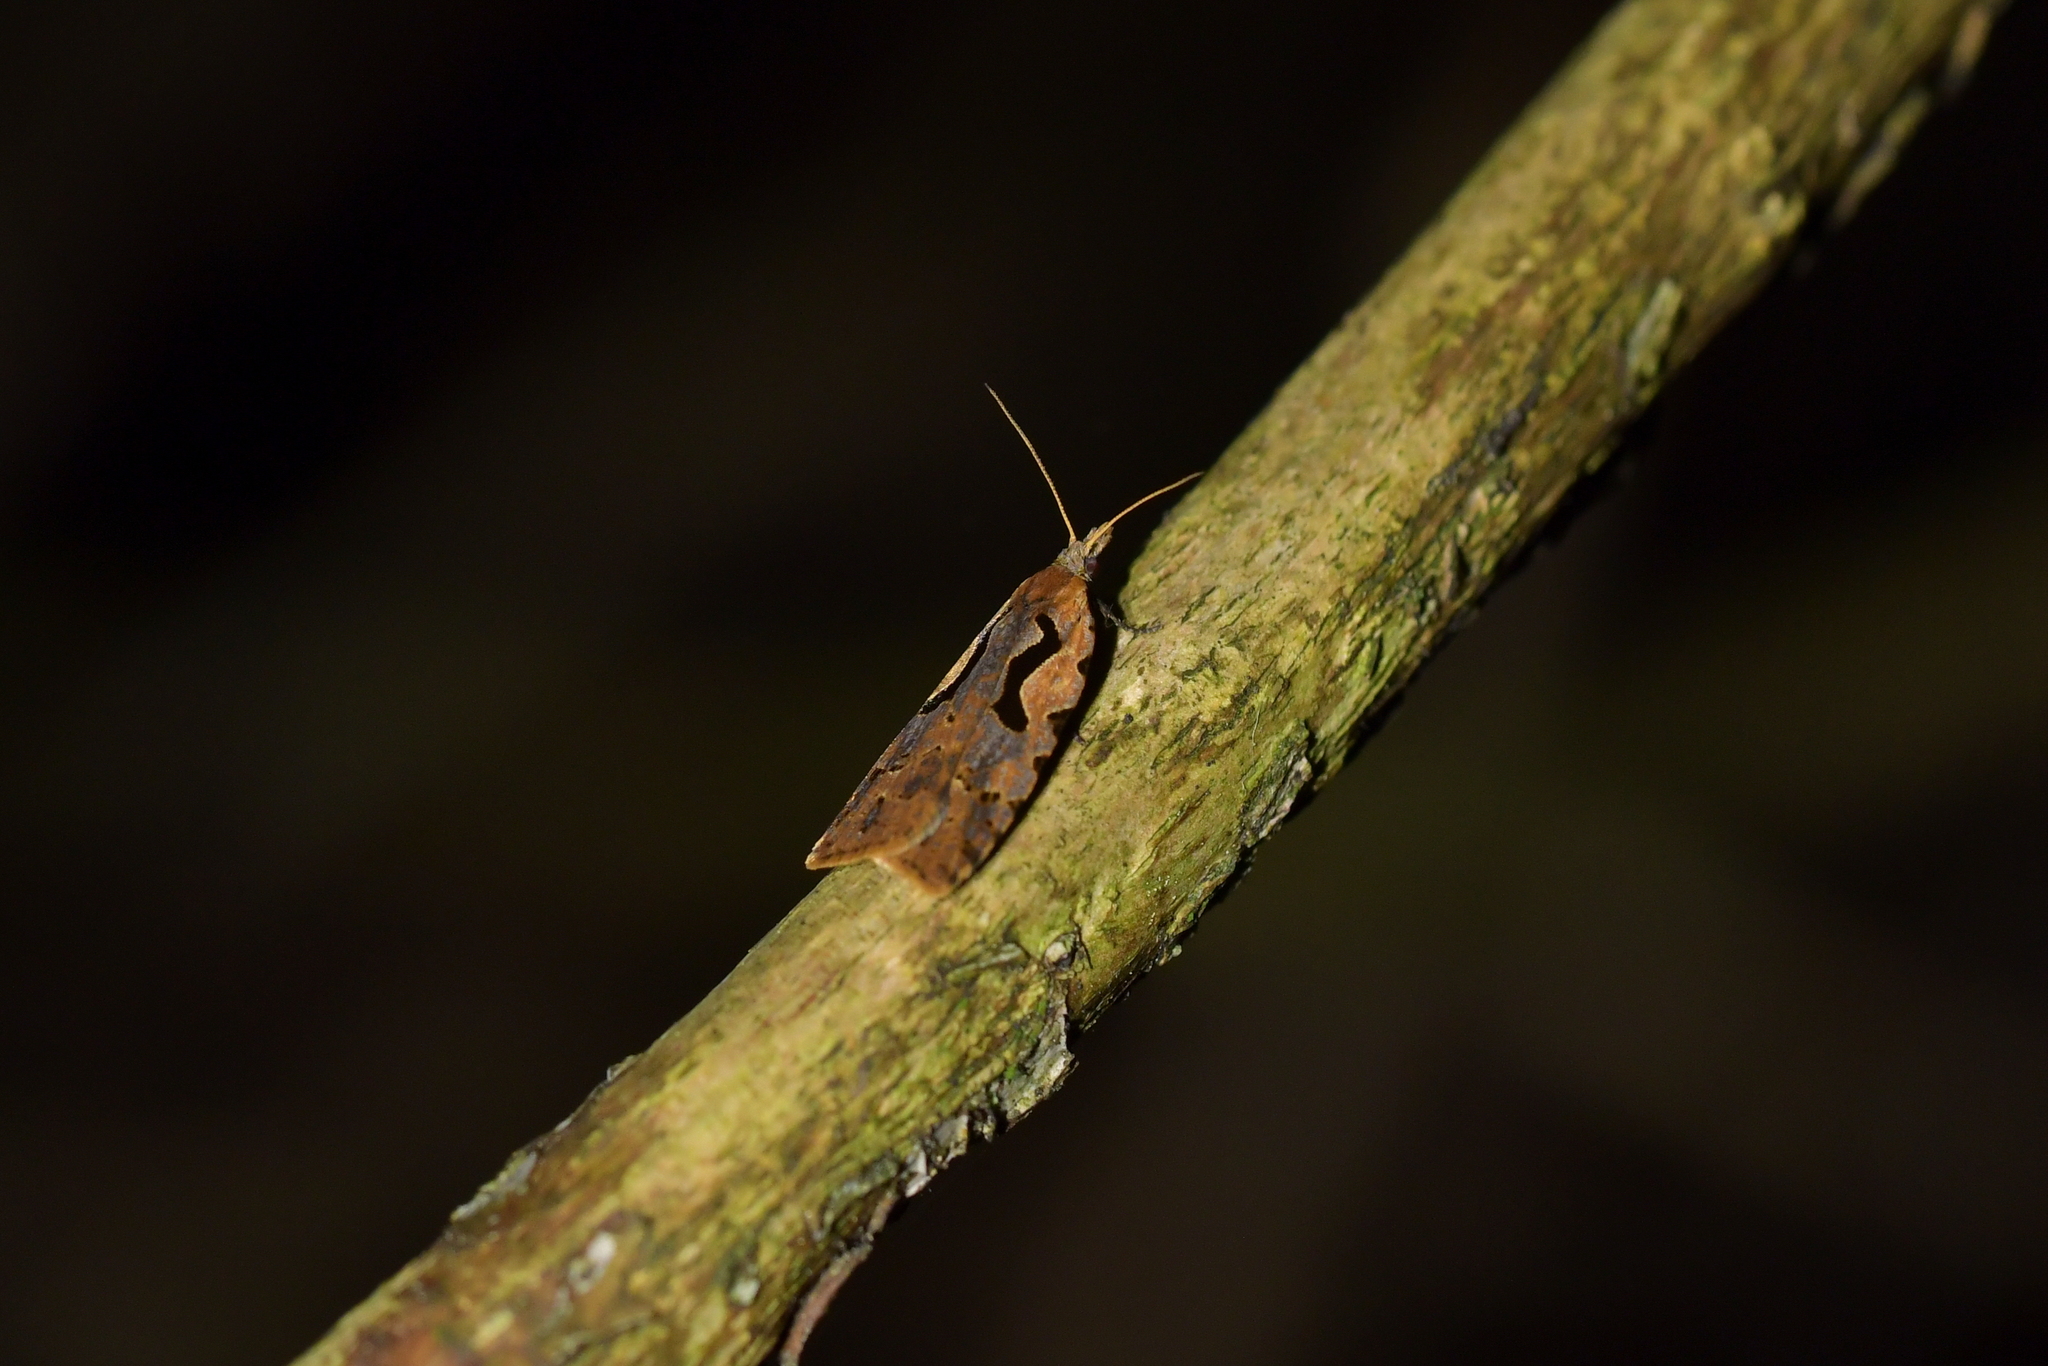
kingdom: Animalia
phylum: Arthropoda
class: Insecta
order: Lepidoptera
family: Tortricidae
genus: Cnephasia
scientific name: Cnephasia jactatana
